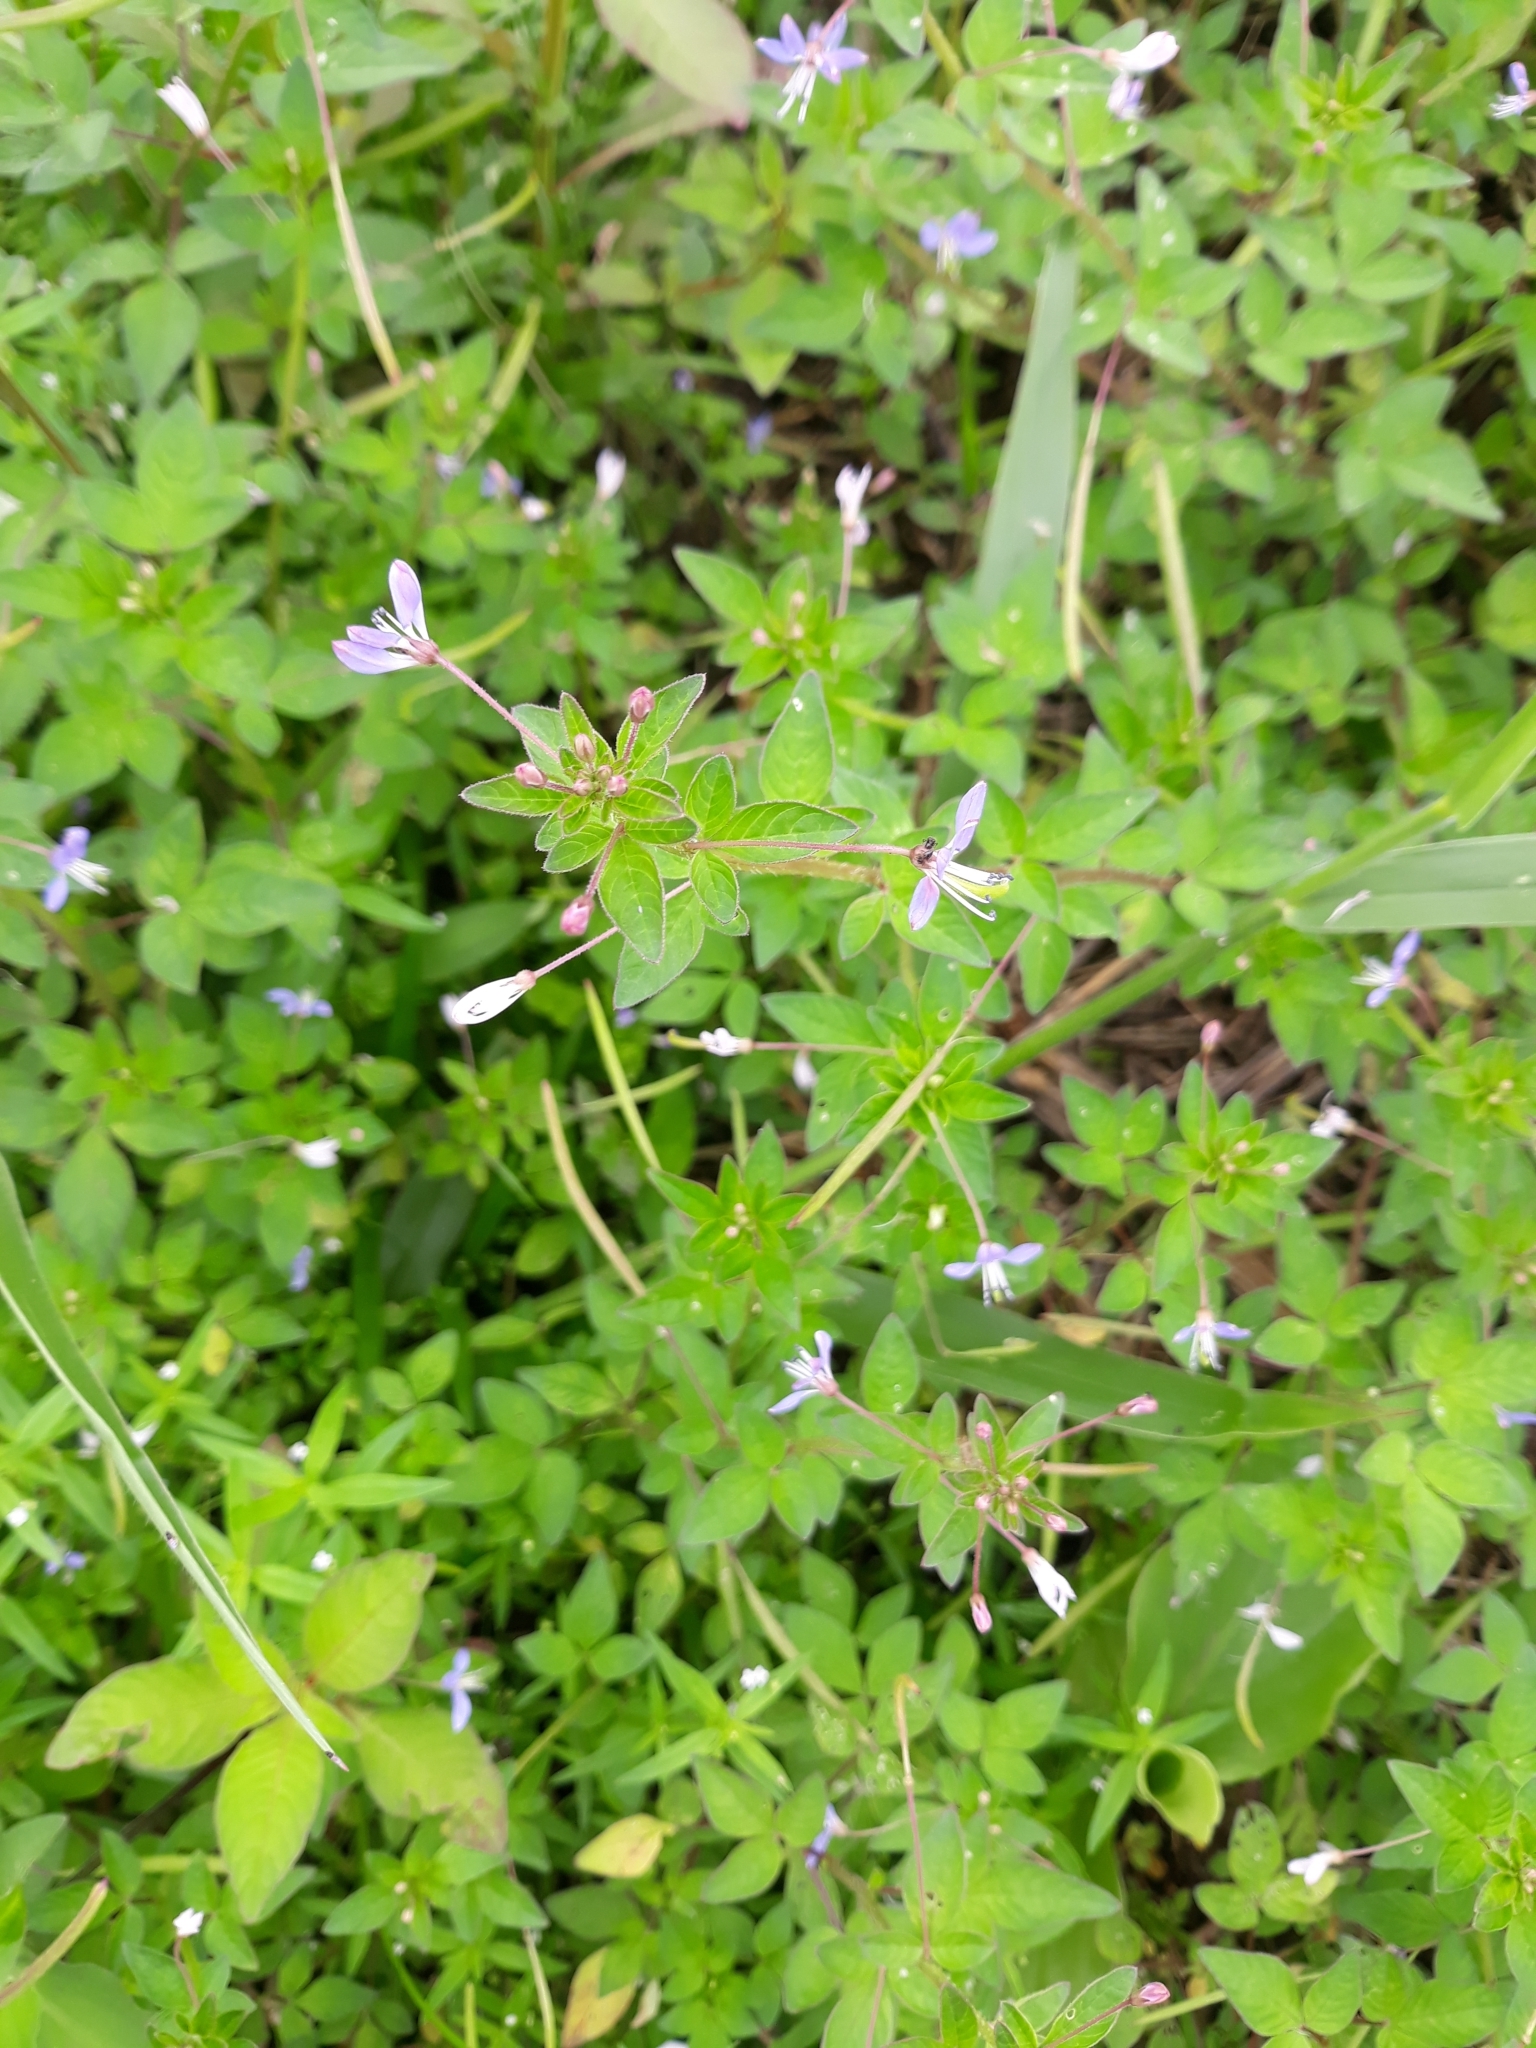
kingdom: Plantae
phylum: Tracheophyta
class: Magnoliopsida
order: Brassicales
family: Cleomaceae
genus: Sieruela
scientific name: Sieruela rutidosperma
